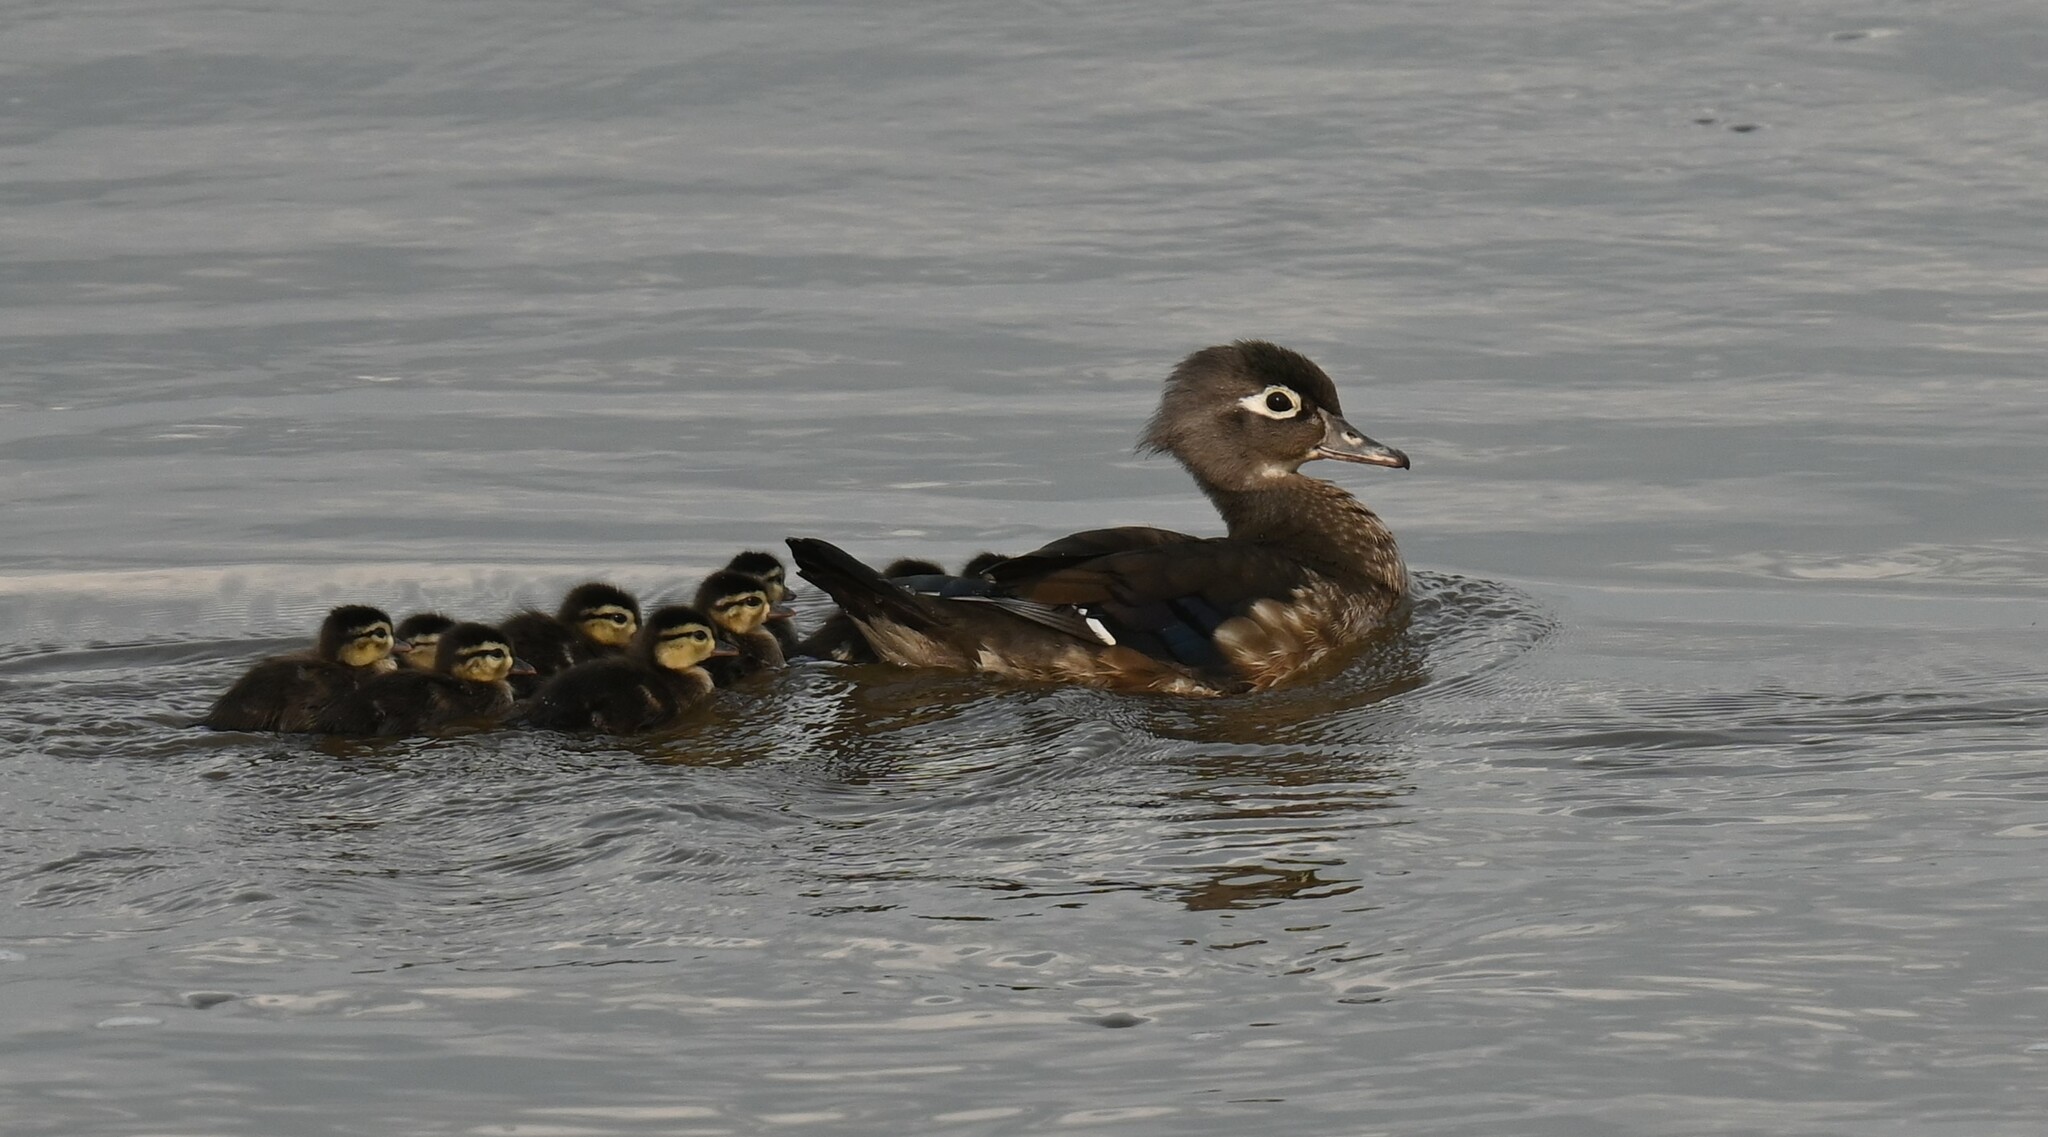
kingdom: Animalia
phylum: Chordata
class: Aves
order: Anseriformes
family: Anatidae
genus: Aix
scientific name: Aix sponsa
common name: Wood duck
